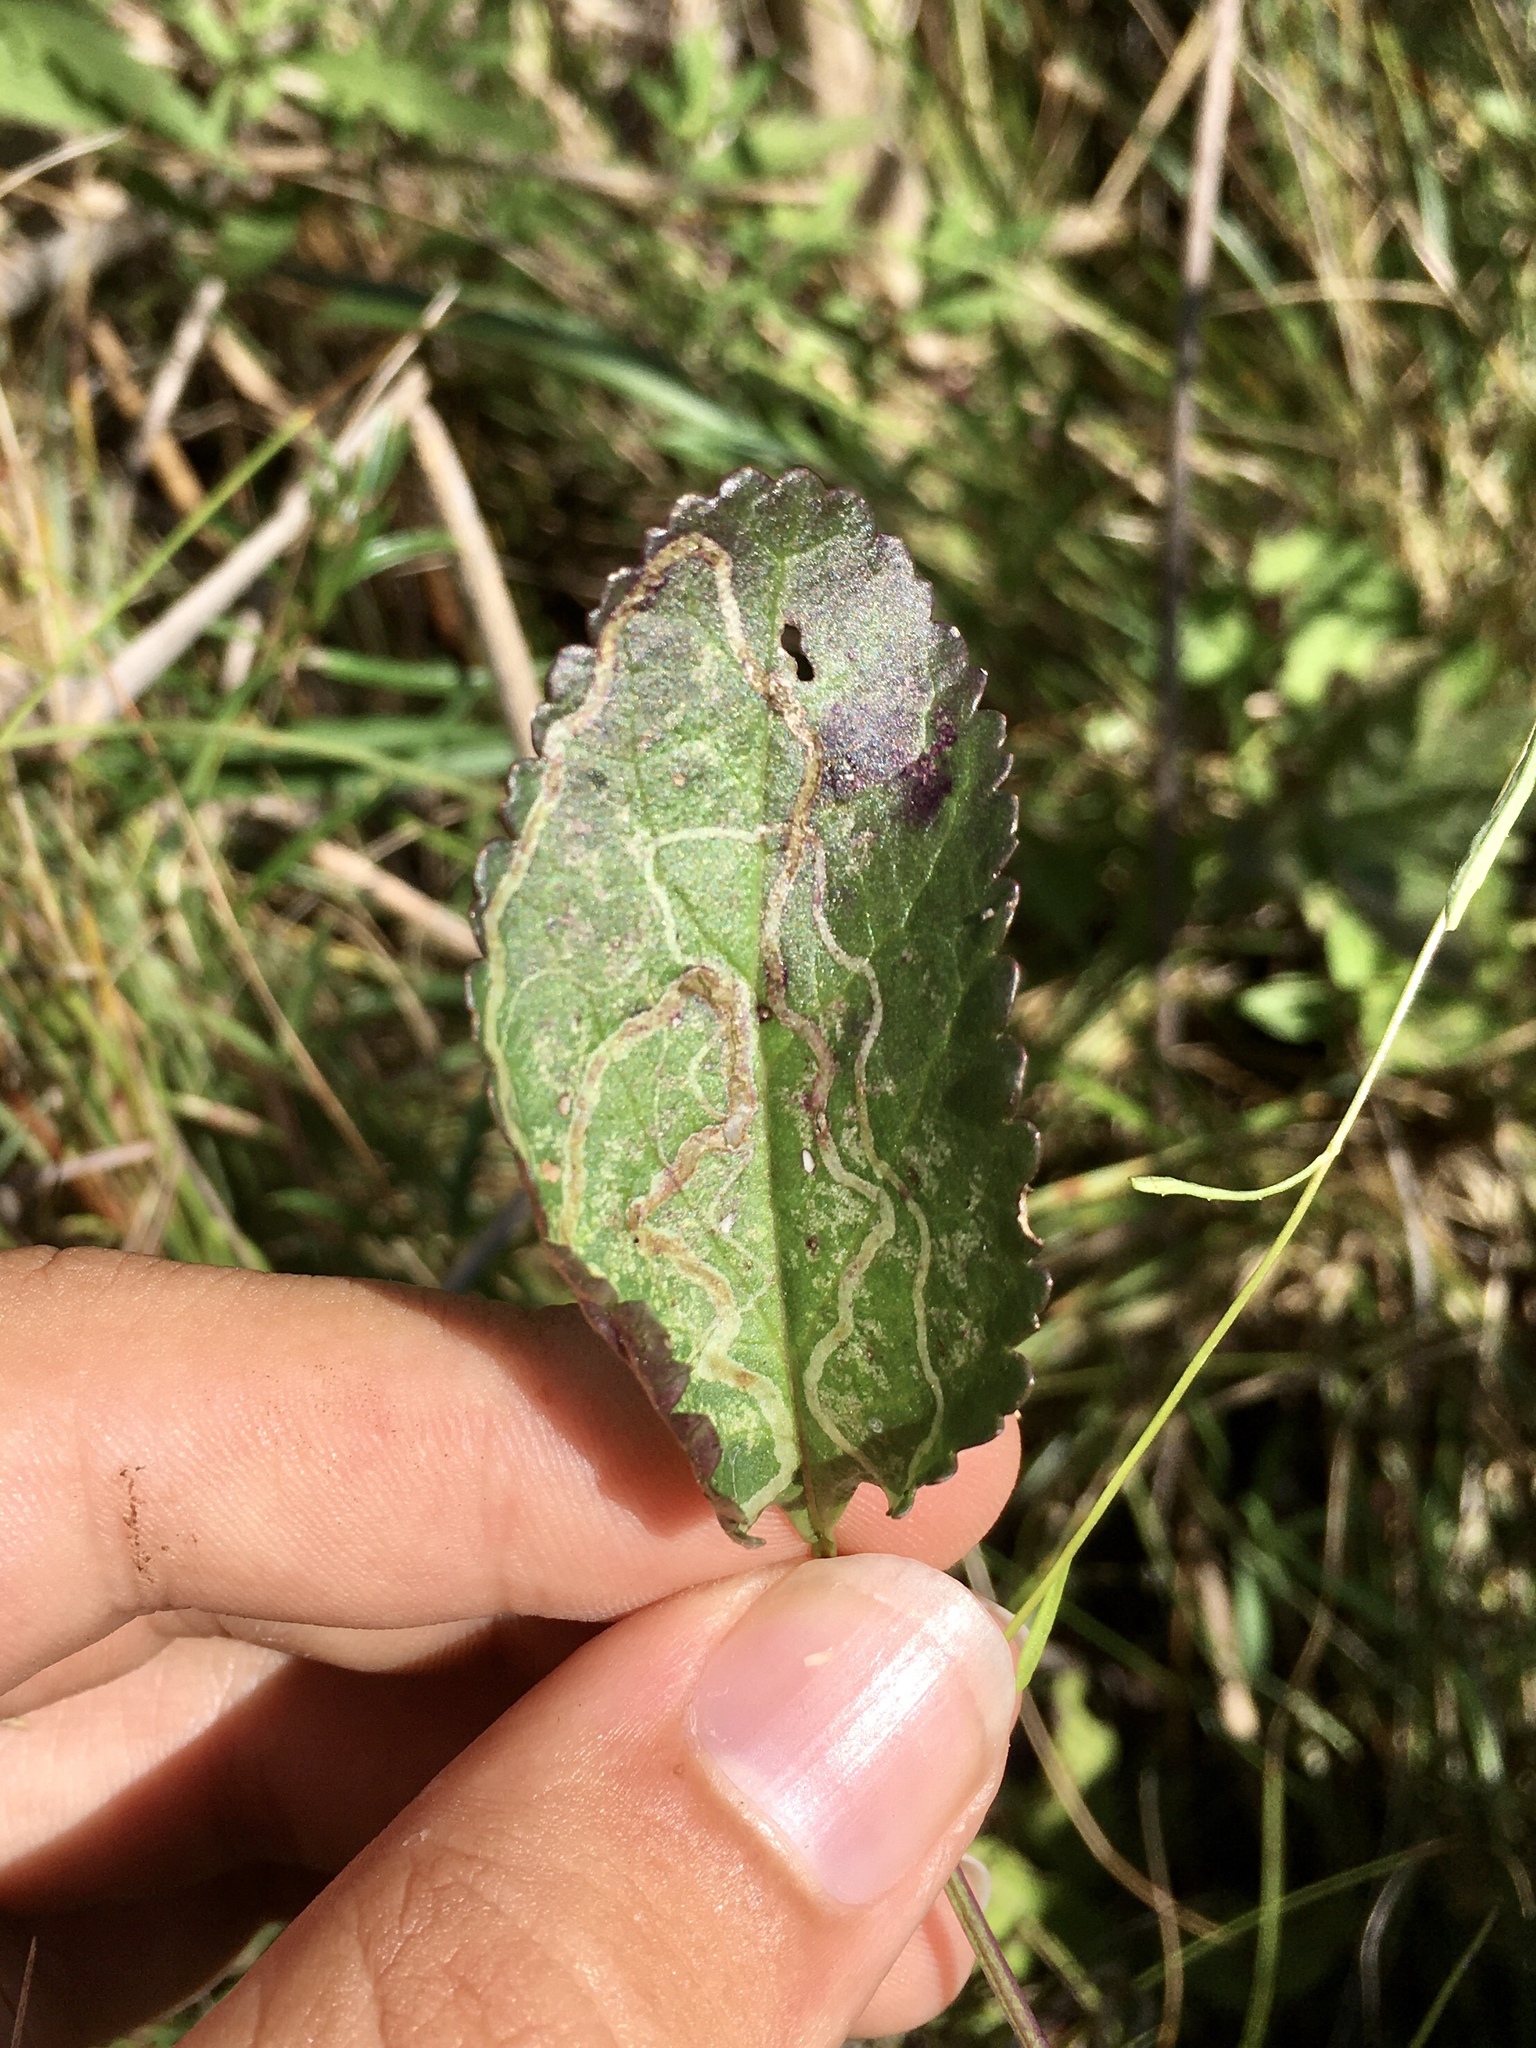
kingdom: Animalia
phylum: Arthropoda
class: Insecta
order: Lepidoptera
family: Gracillariidae
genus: Phyllocnistis
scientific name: Phyllocnistis insignis
